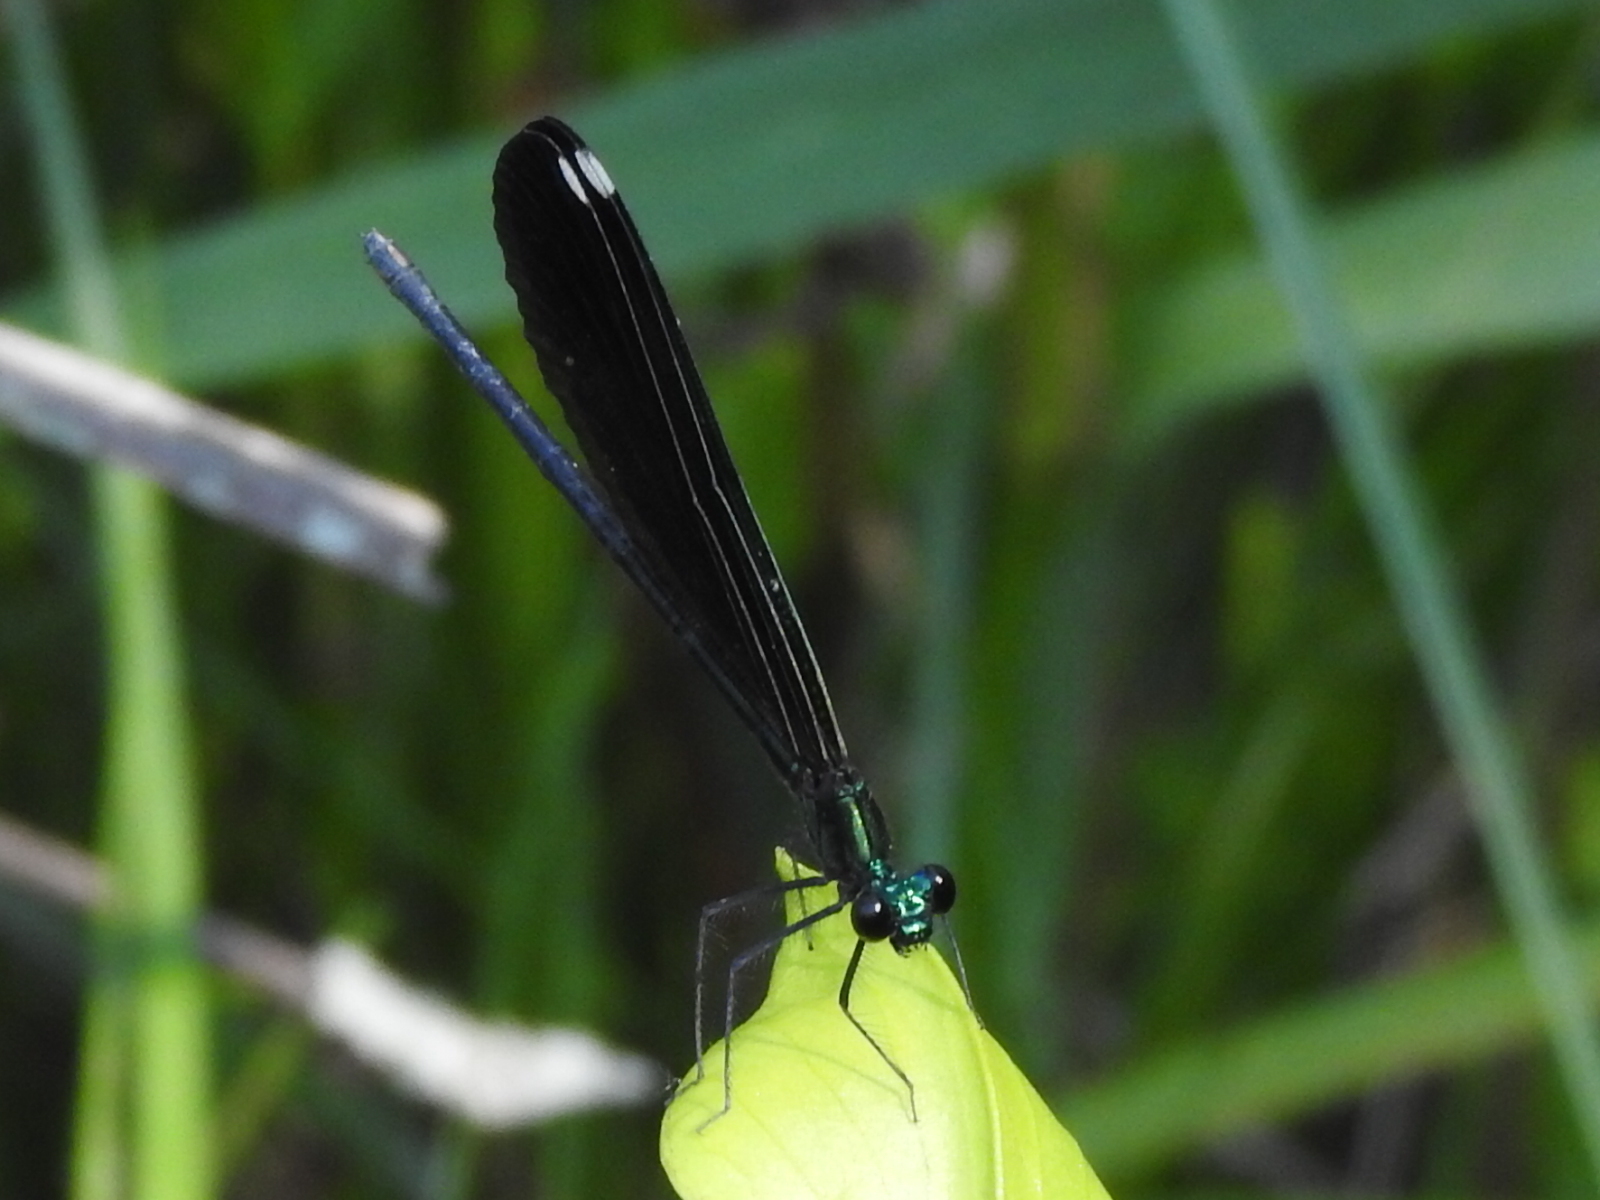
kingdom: Animalia
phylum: Arthropoda
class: Insecta
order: Odonata
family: Calopterygidae
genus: Calopteryx
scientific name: Calopteryx maculata
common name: Ebony jewelwing
